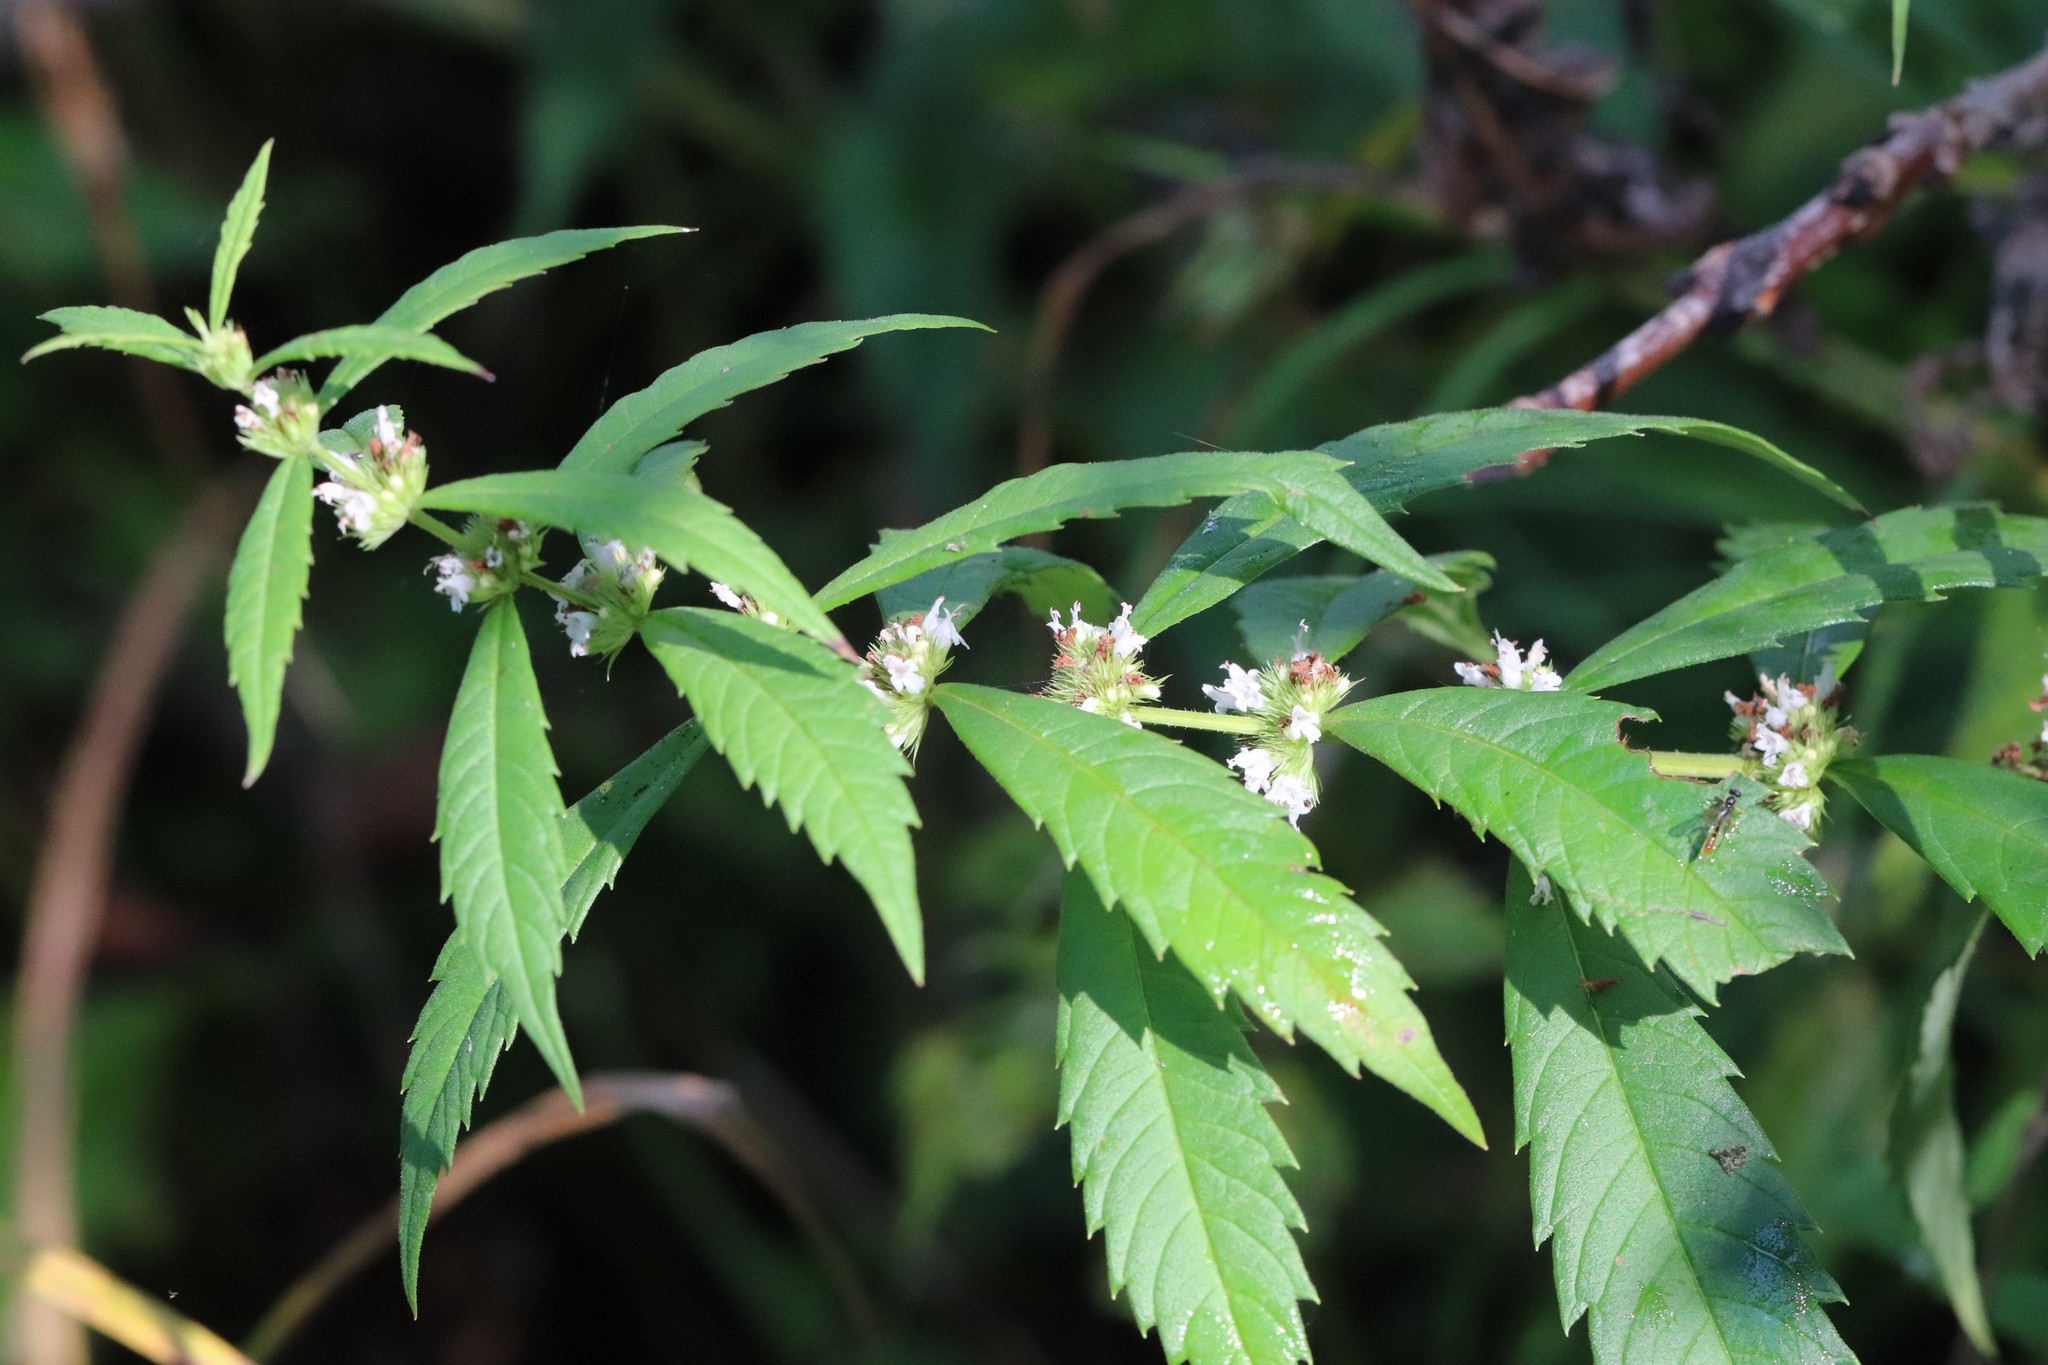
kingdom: Plantae
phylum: Tracheophyta
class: Magnoliopsida
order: Lamiales
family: Lamiaceae
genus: Lycopus
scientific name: Lycopus lucidus
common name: Shiny bugleweed
